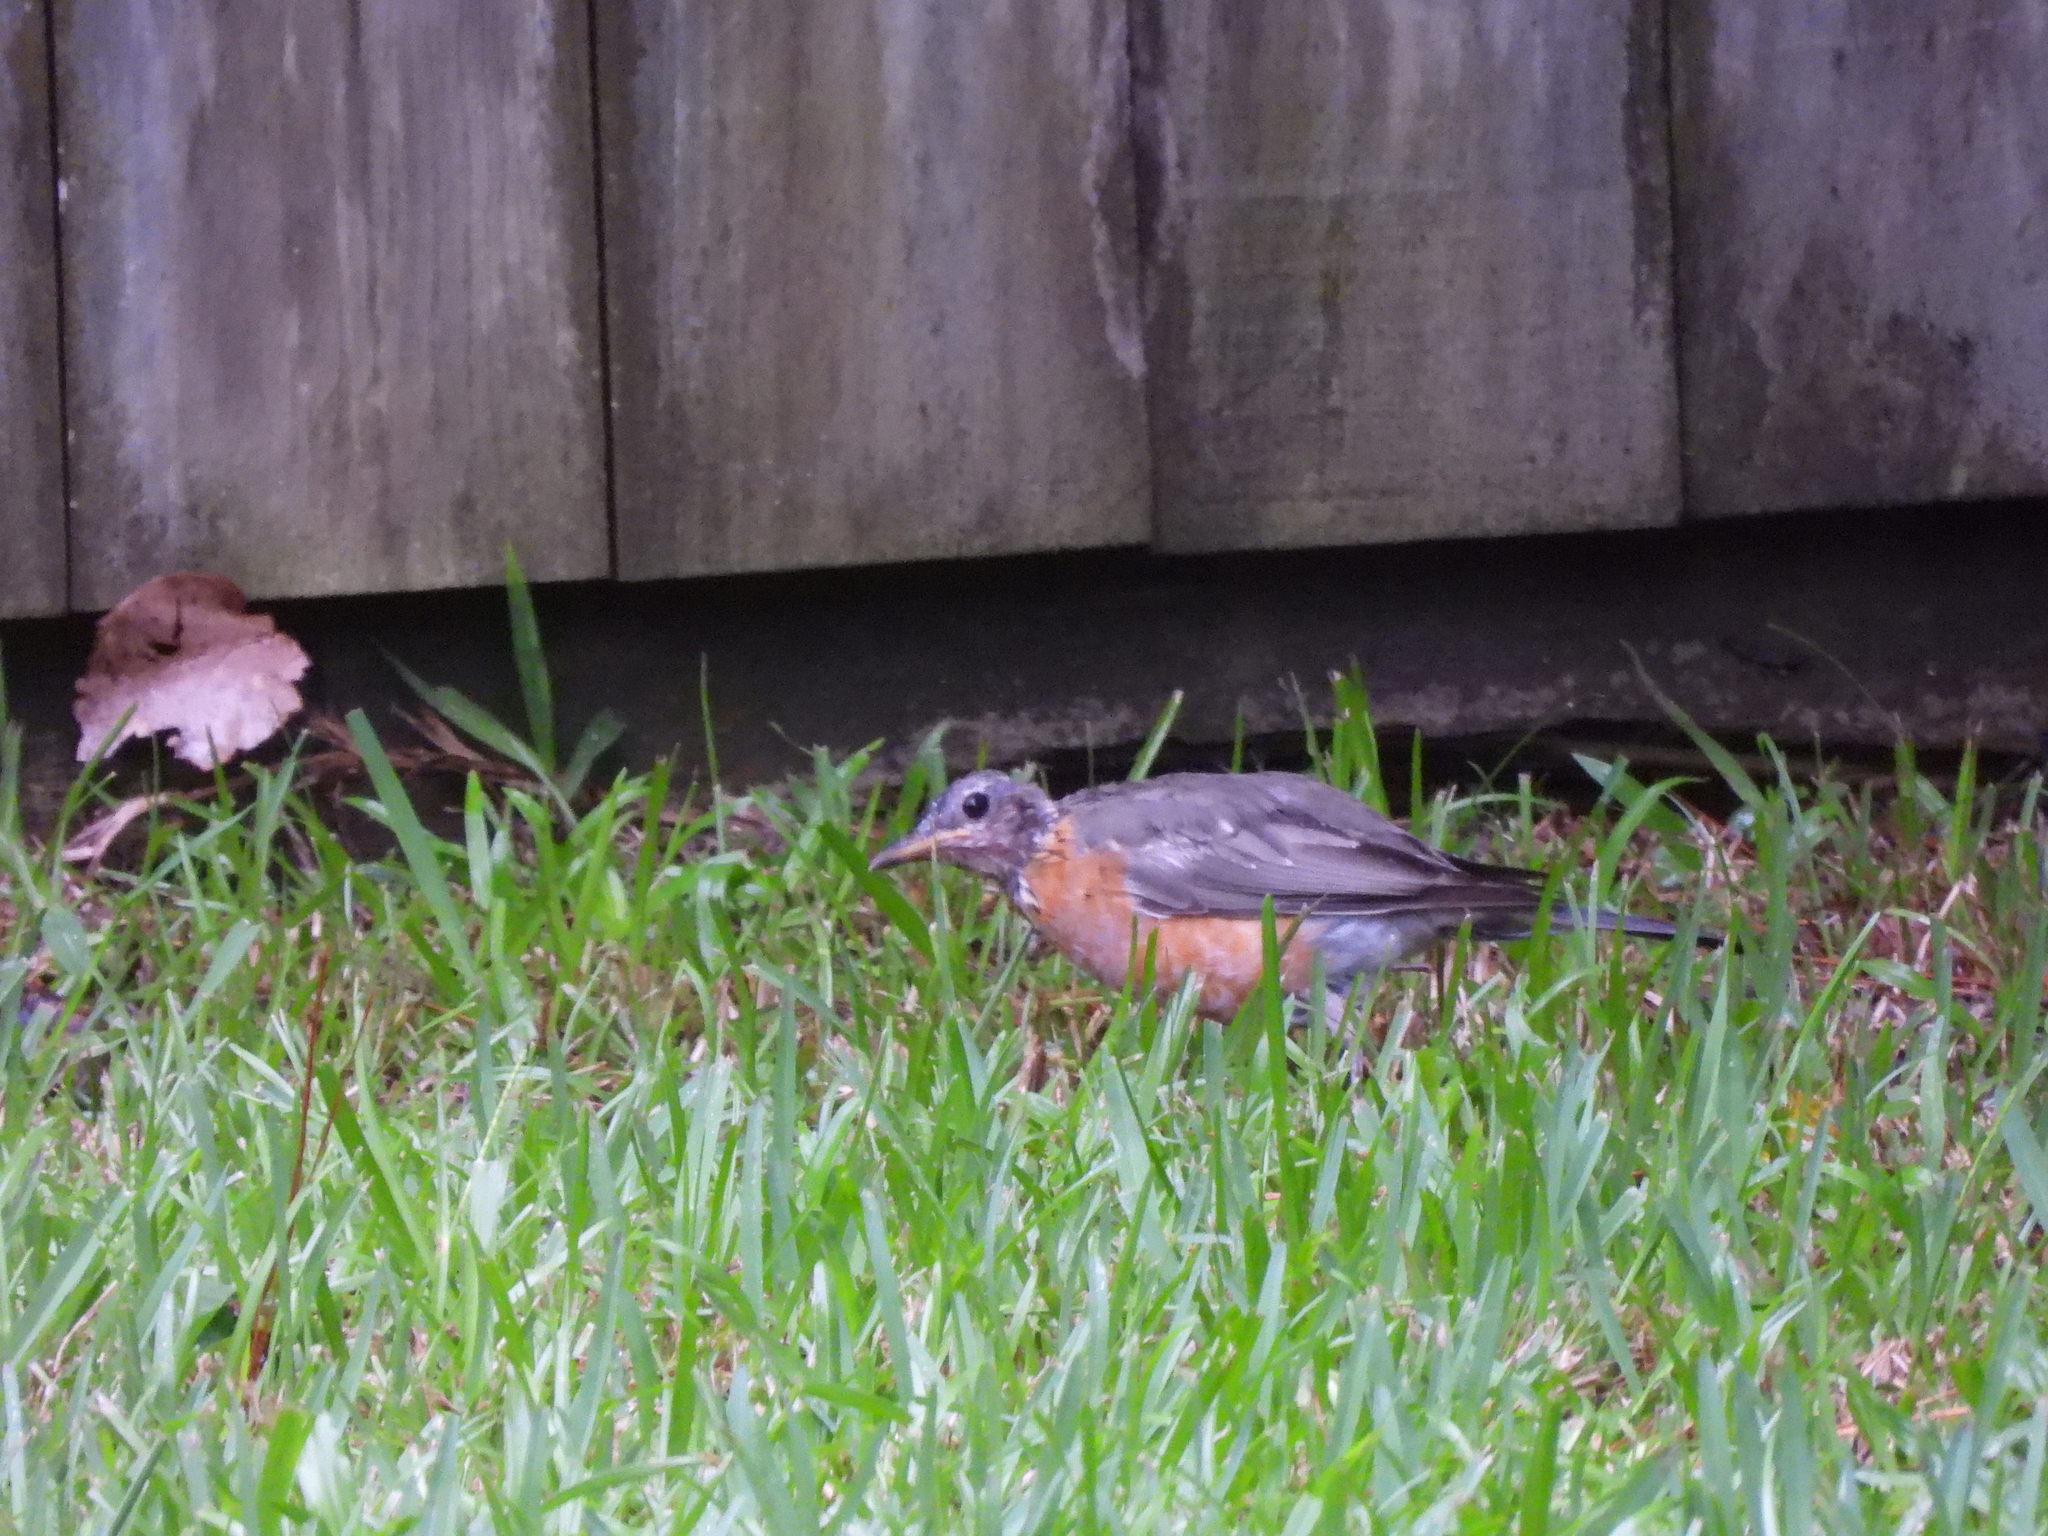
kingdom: Animalia
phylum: Chordata
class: Aves
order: Passeriformes
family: Turdidae
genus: Turdus
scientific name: Turdus migratorius
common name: American robin
